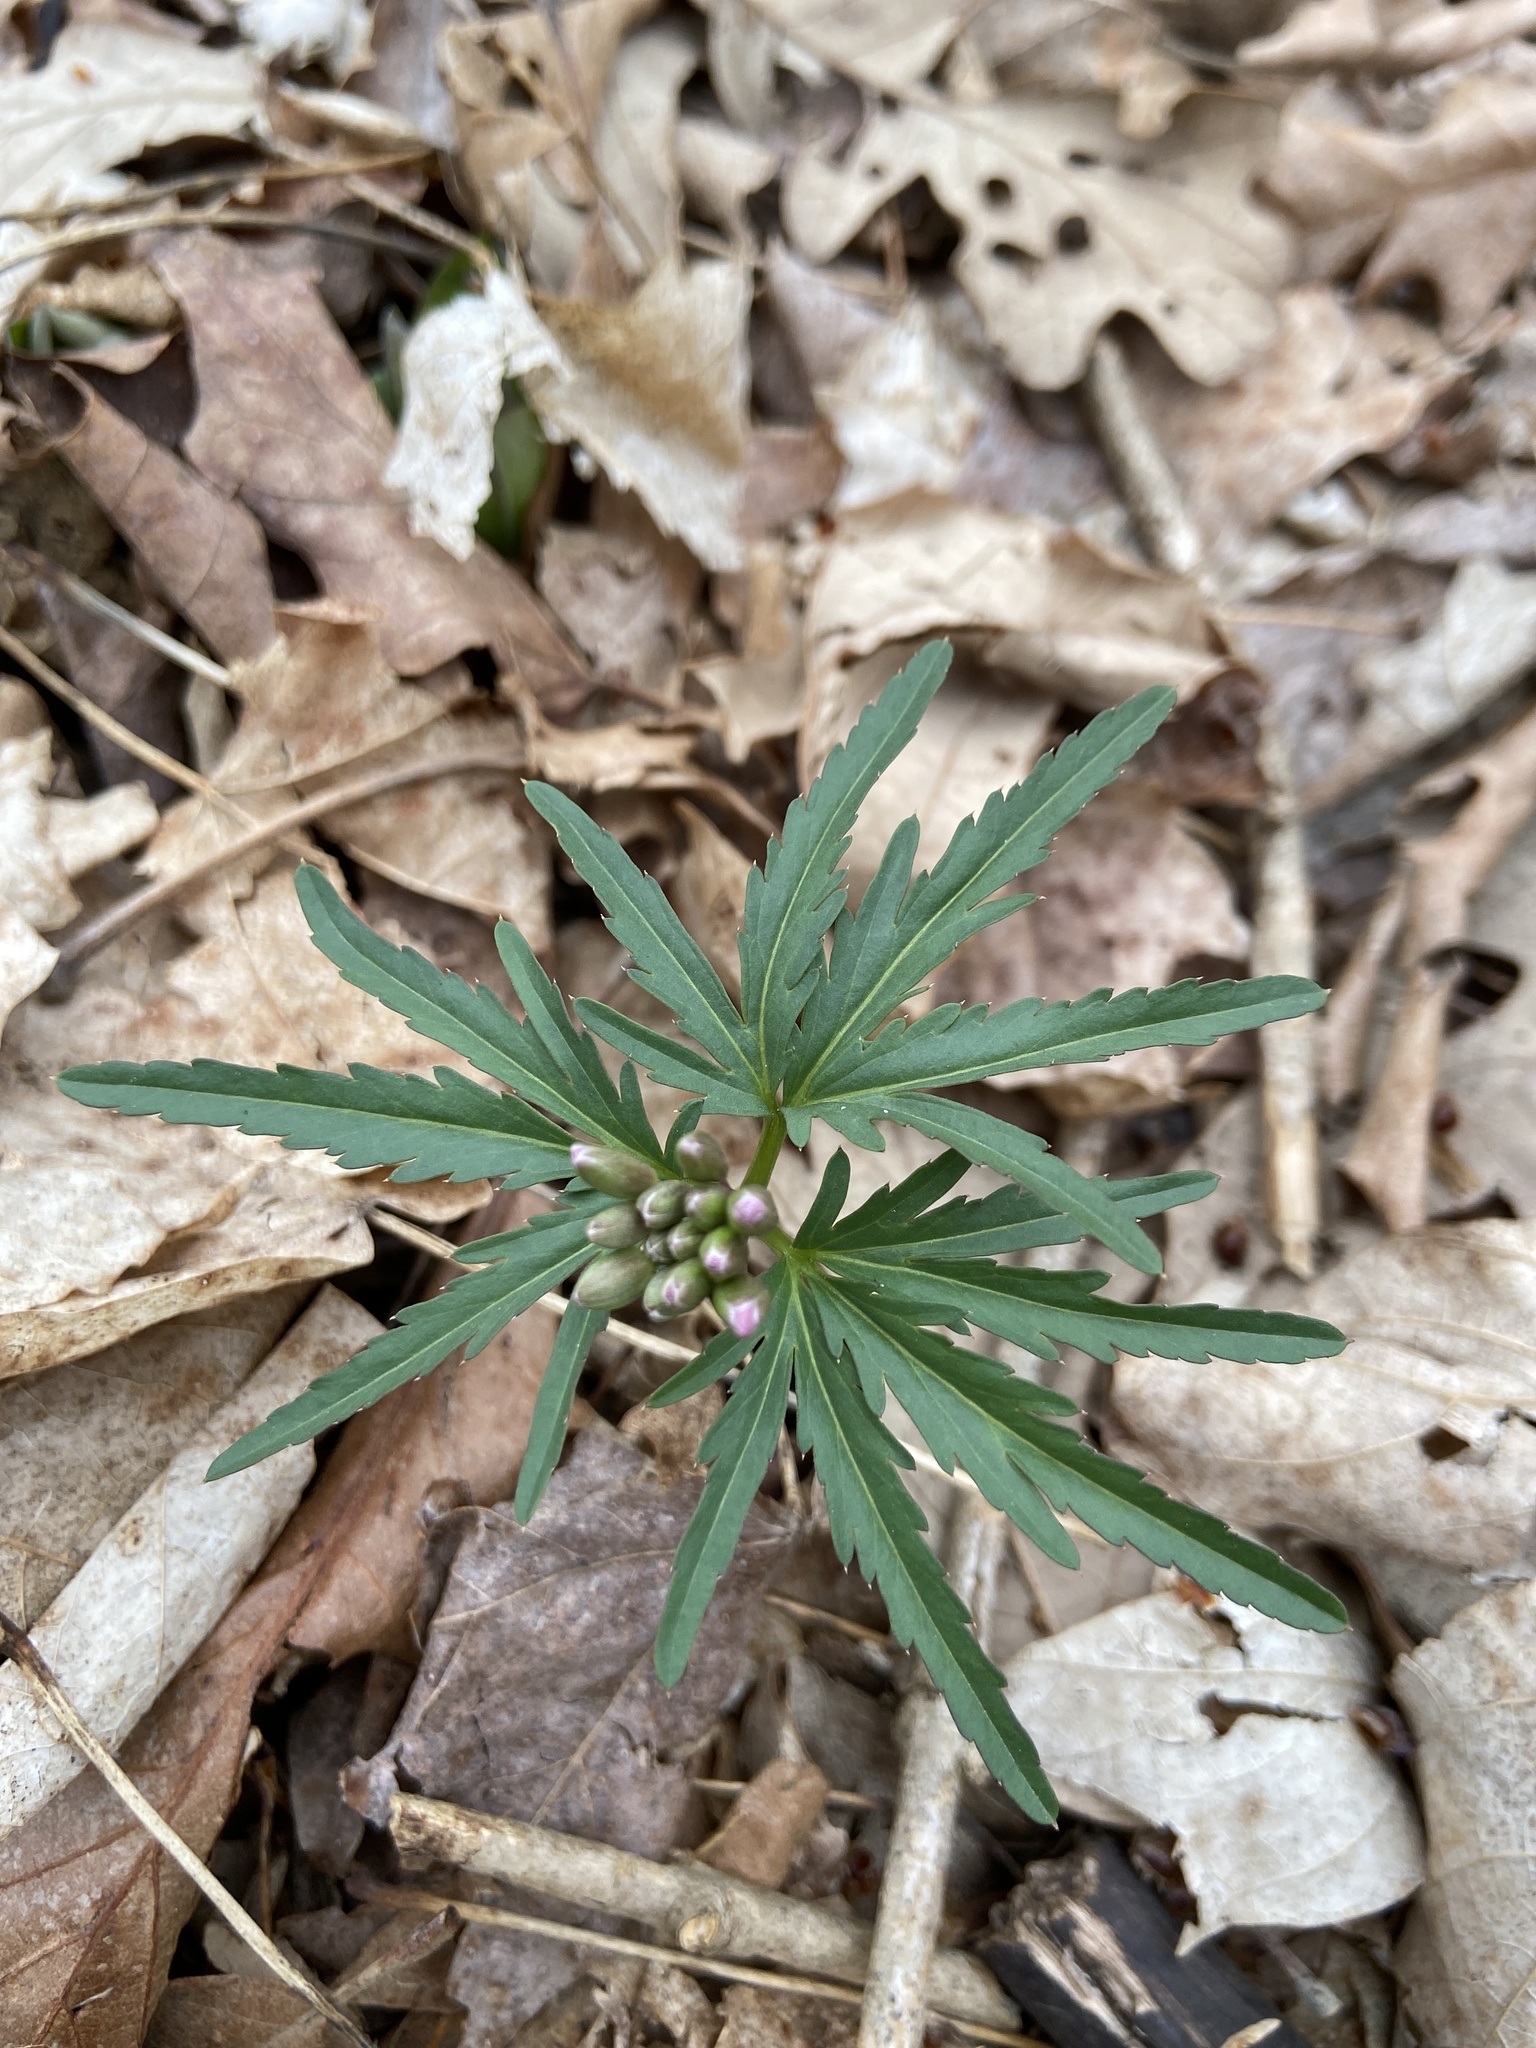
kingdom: Plantae
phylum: Tracheophyta
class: Magnoliopsida
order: Brassicales
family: Brassicaceae
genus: Cardamine
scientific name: Cardamine concatenata
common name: Cut-leaf toothcup
